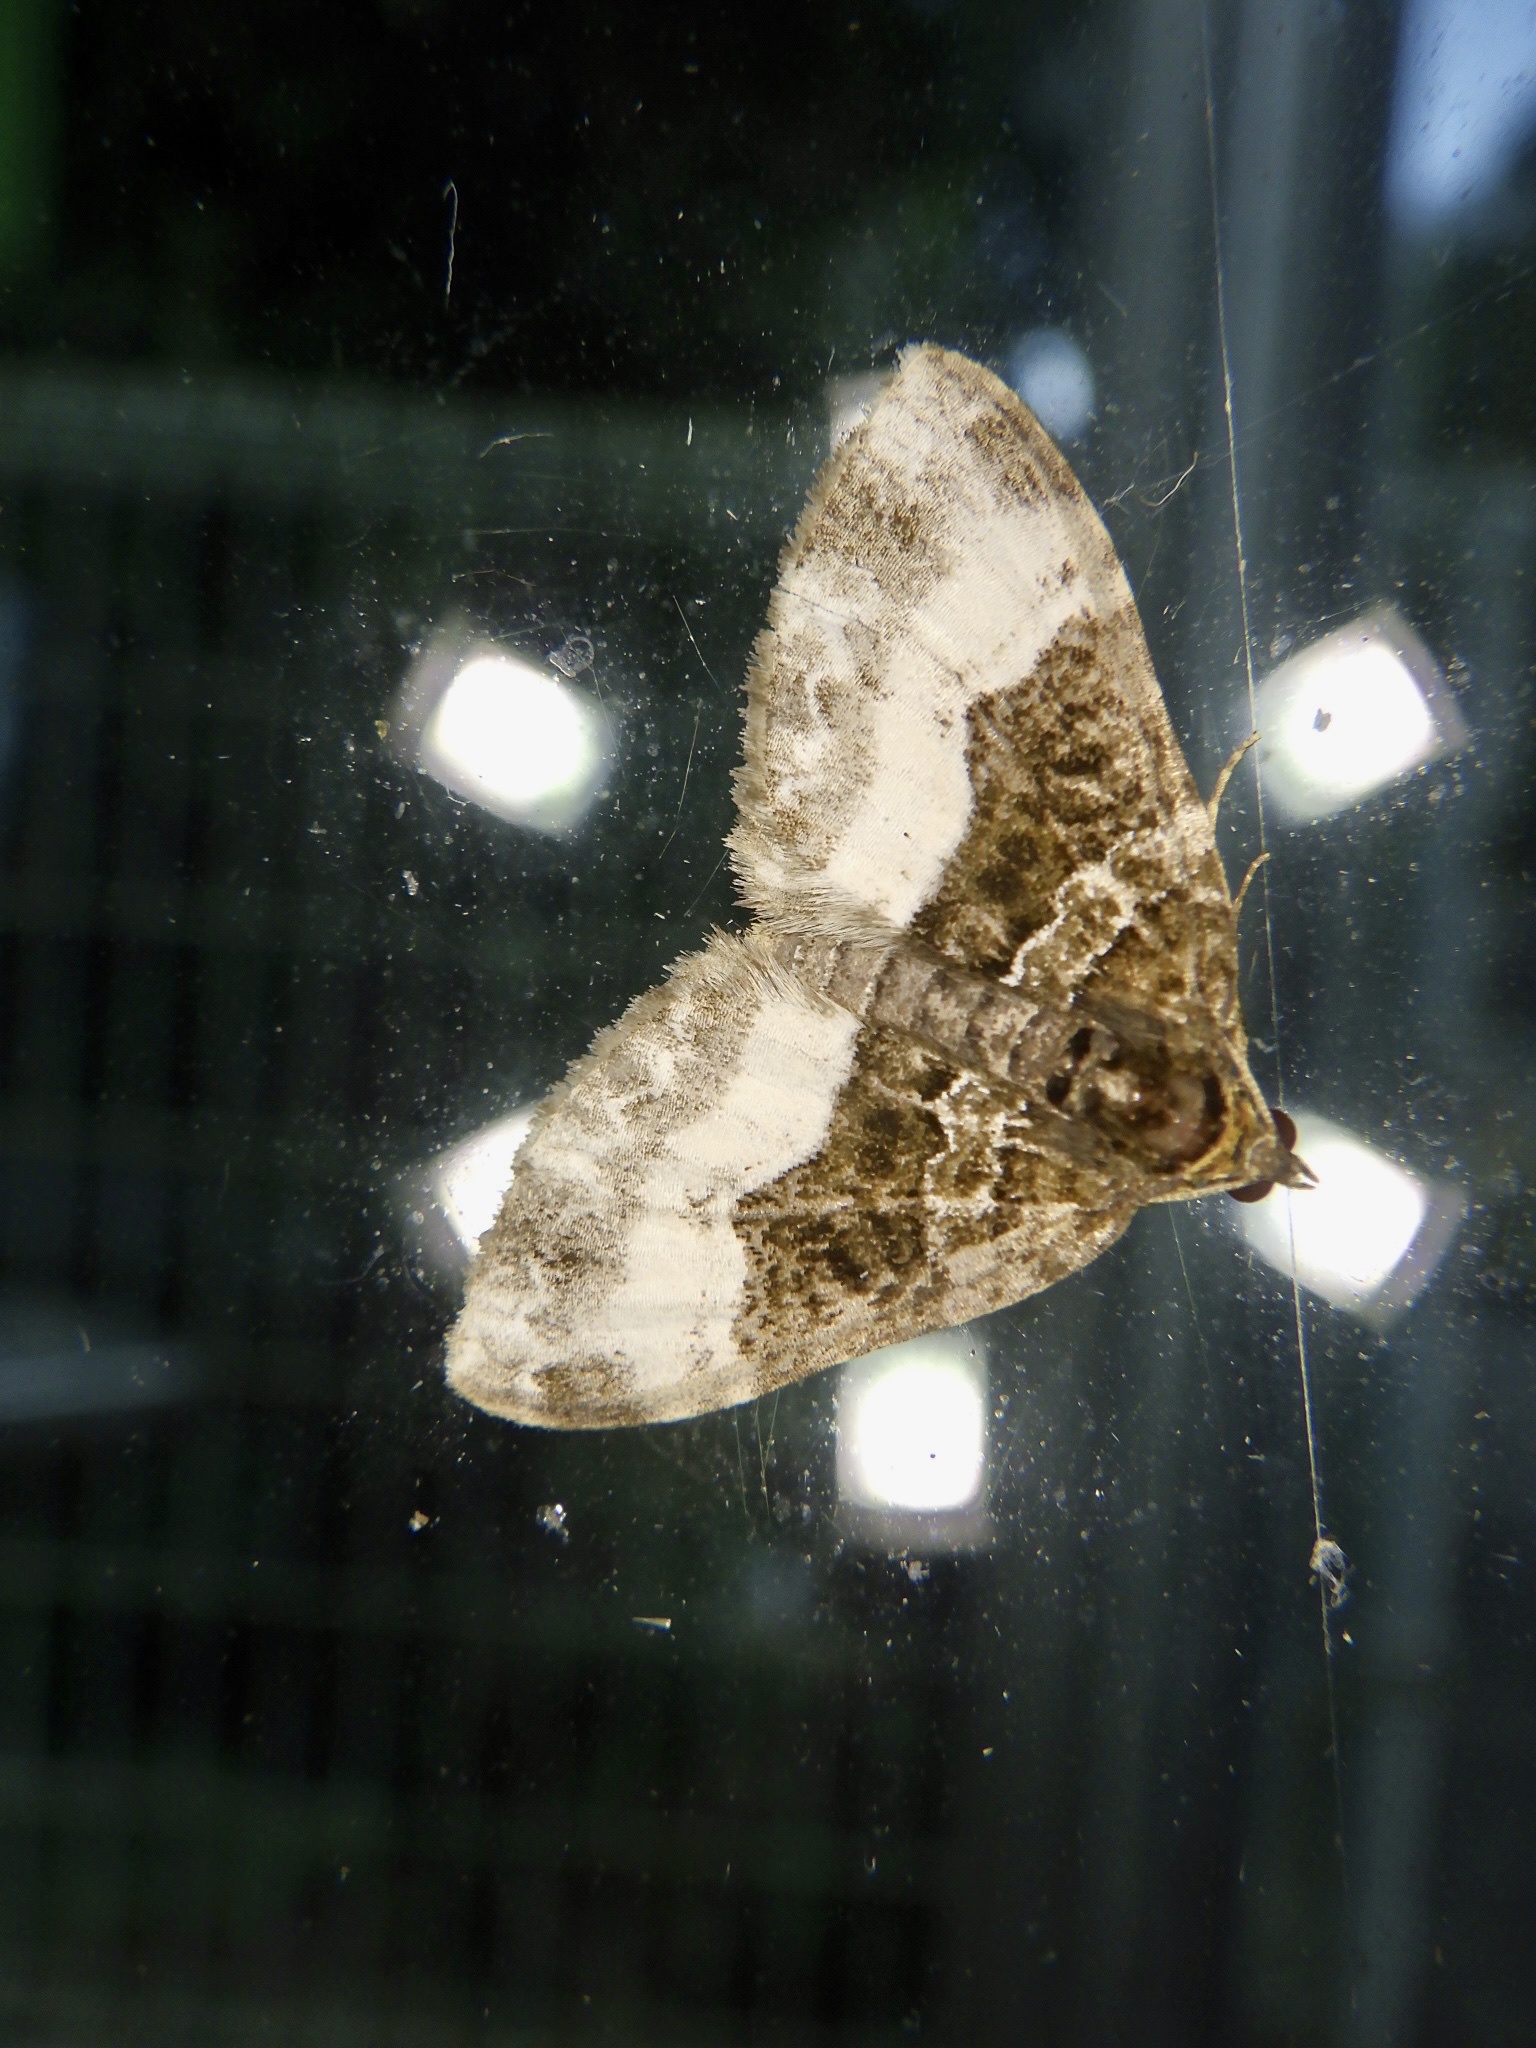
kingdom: Animalia
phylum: Arthropoda
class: Insecta
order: Lepidoptera
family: Geometridae
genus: Euphyia
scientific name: Euphyia cineraria
